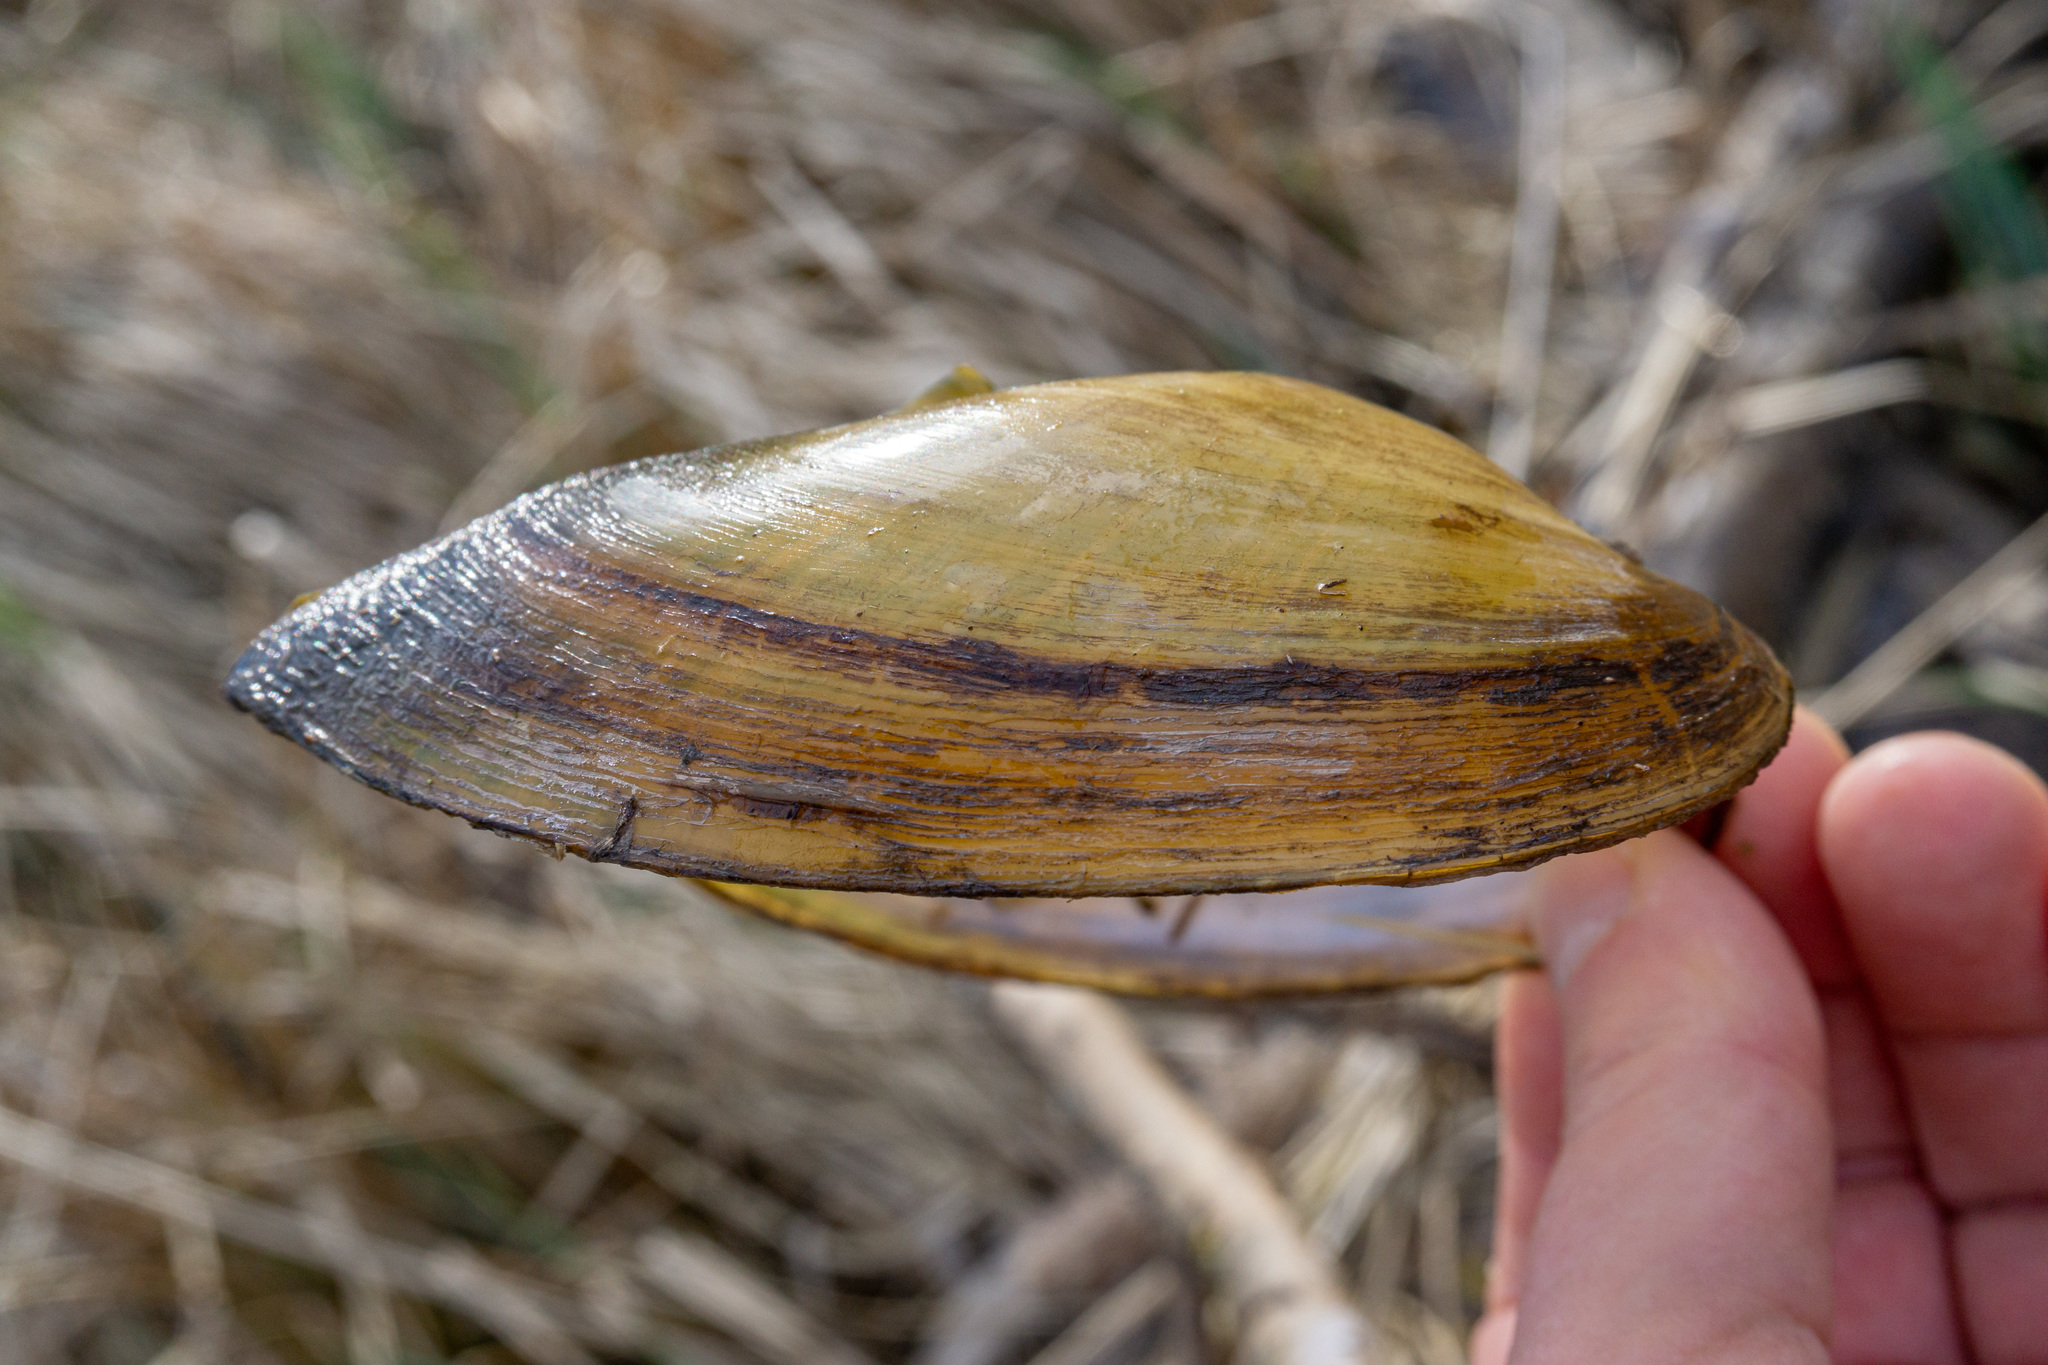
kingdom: Animalia
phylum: Mollusca
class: Bivalvia
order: Unionida
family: Unionidae
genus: Anodonta
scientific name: Anodonta anatina
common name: Duck mussel
